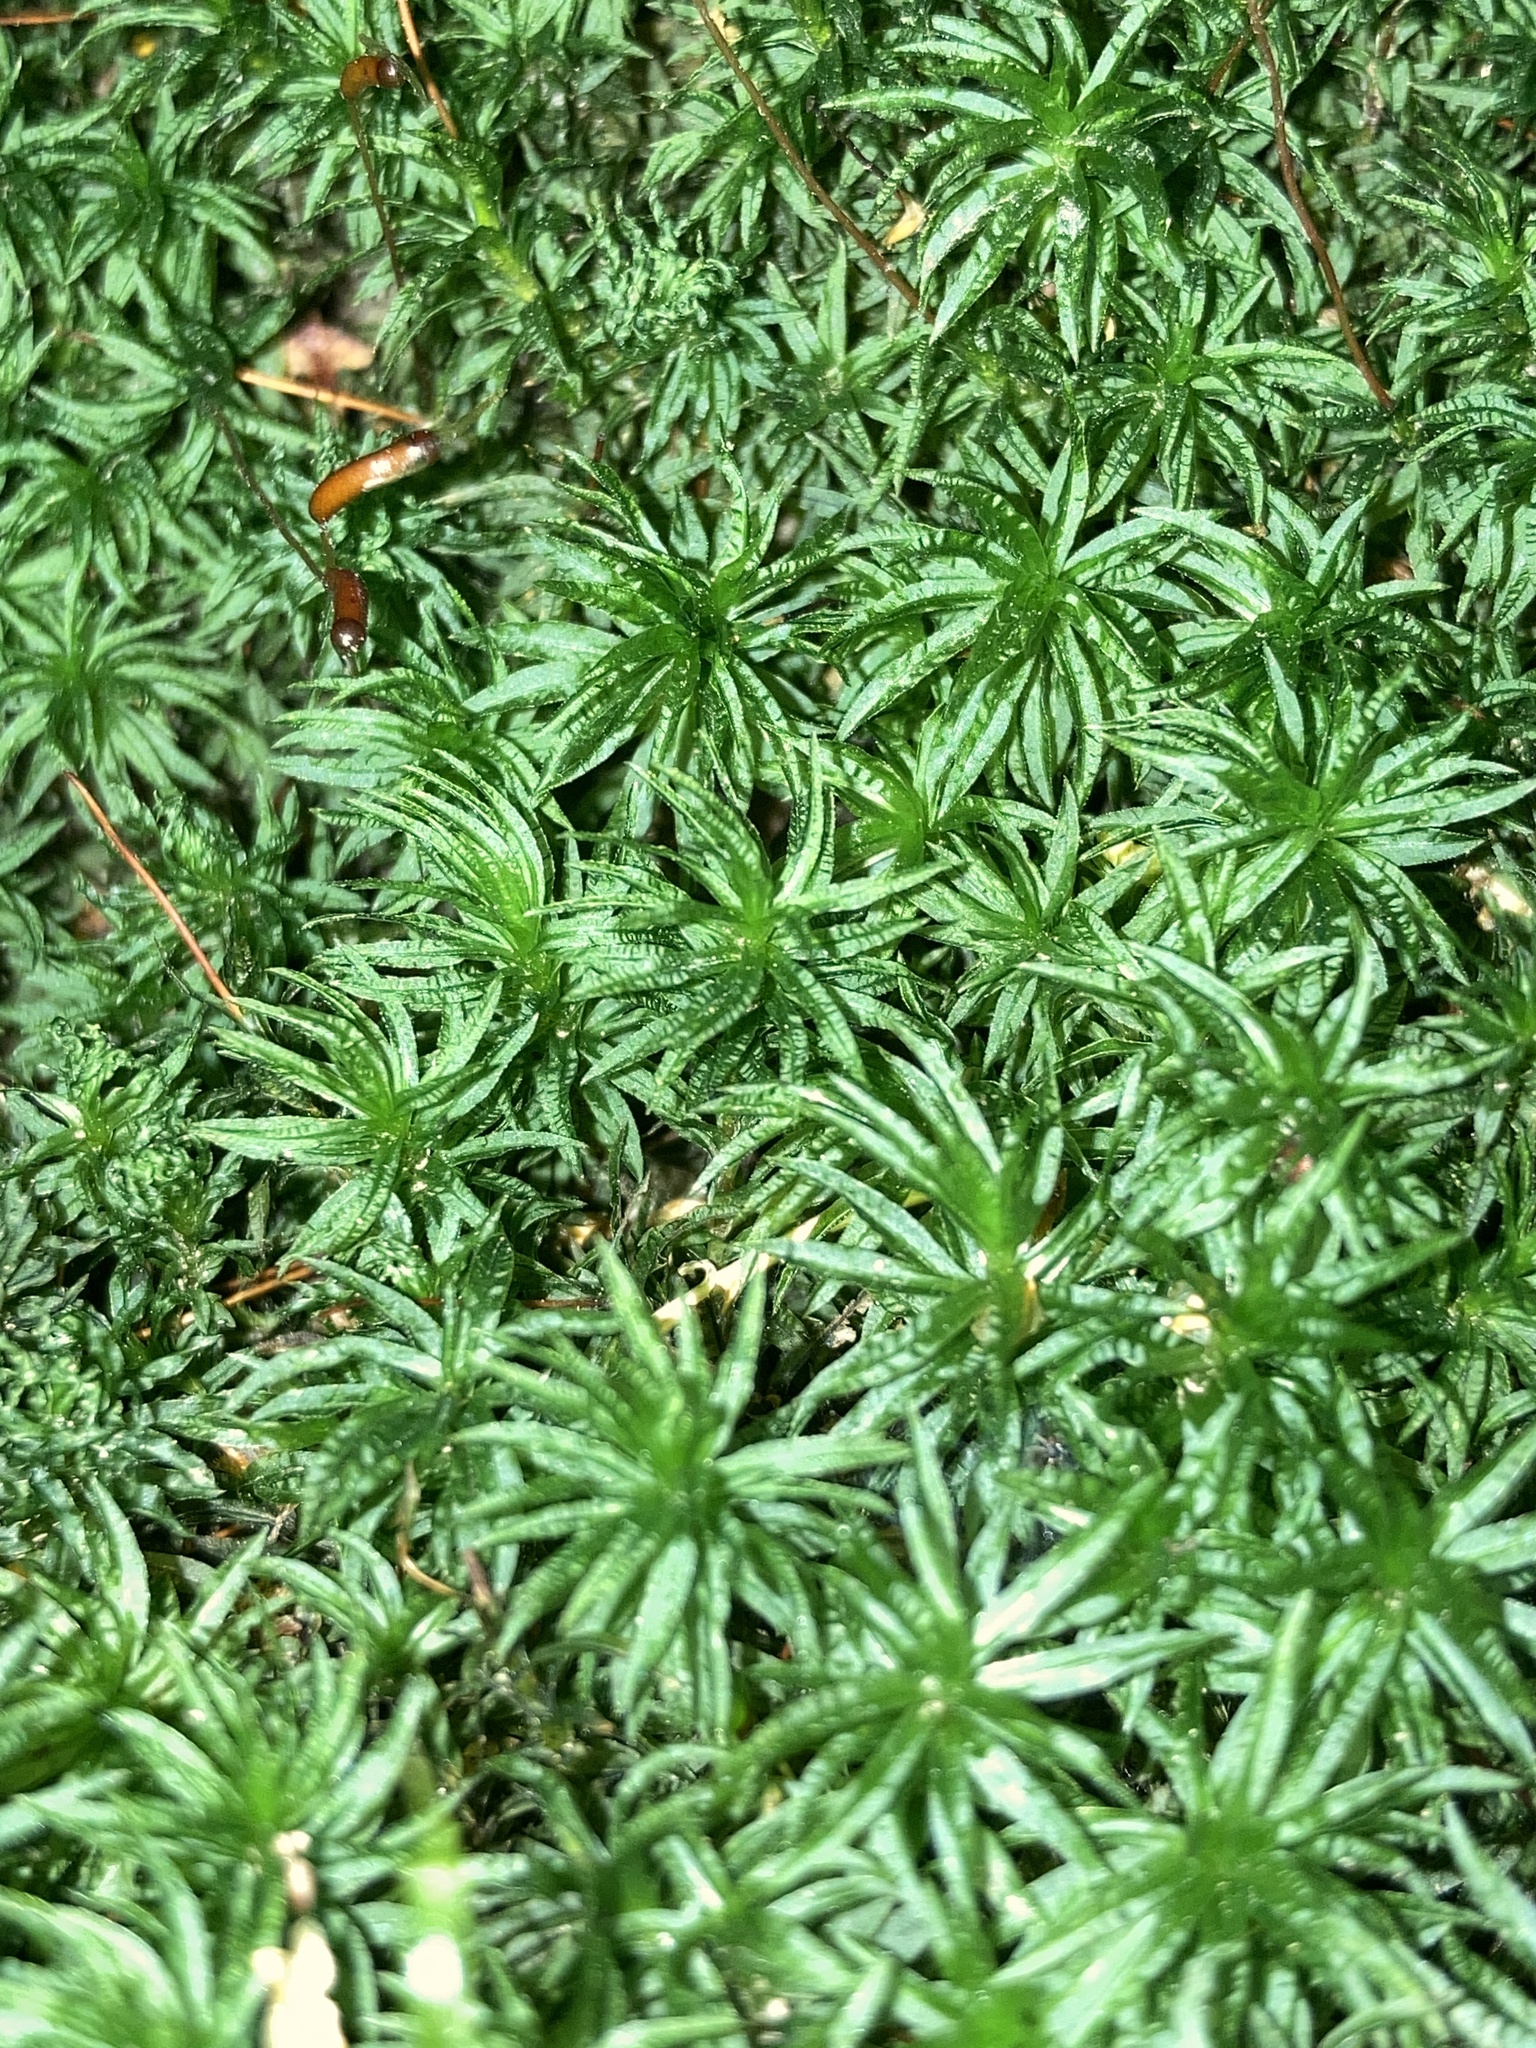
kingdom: Plantae
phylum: Bryophyta
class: Polytrichopsida
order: Polytrichales
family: Polytrichaceae
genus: Atrichum
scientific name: Atrichum undulatum
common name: Common smoothcap
